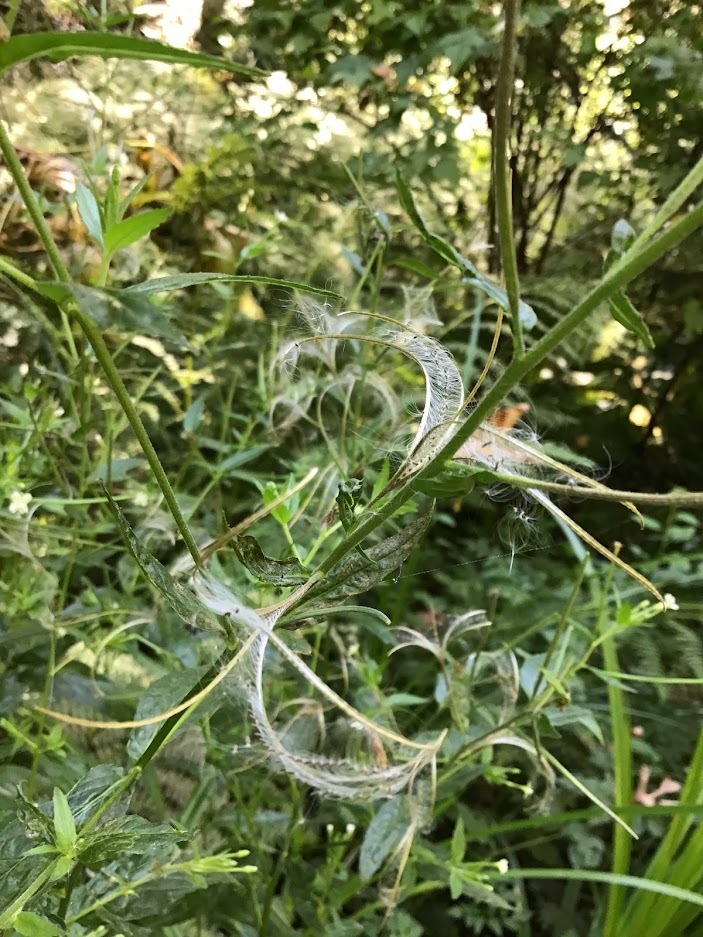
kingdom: Plantae
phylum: Tracheophyta
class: Magnoliopsida
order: Myrtales
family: Onagraceae
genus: Epilobium
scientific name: Epilobium ciliatum
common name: American willowherb
